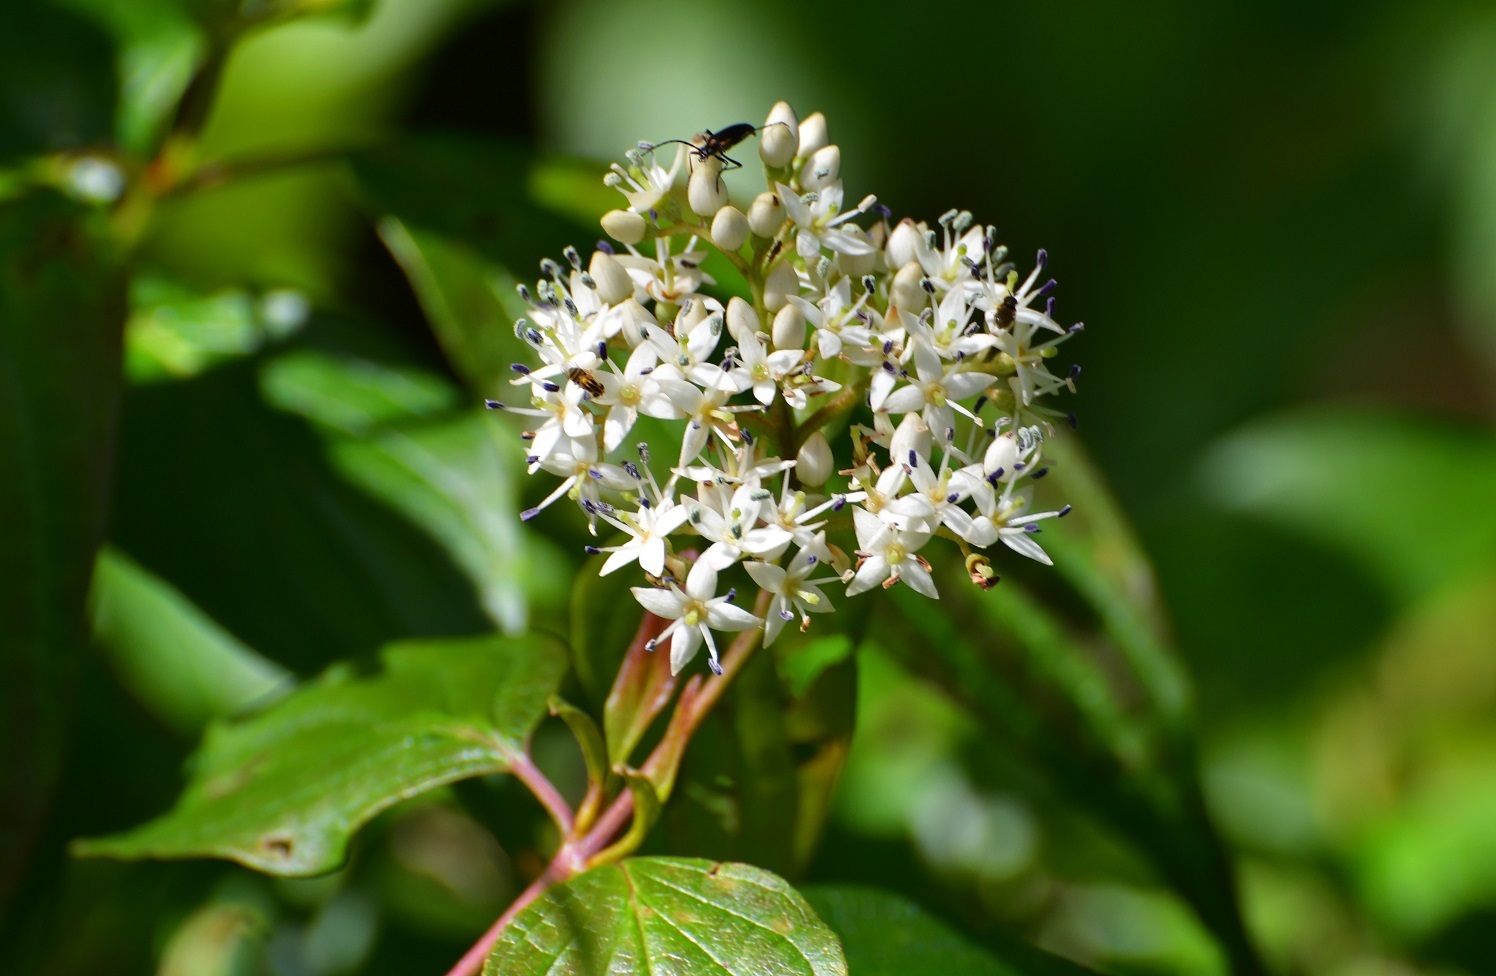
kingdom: Plantae
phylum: Tracheophyta
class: Magnoliopsida
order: Cornales
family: Cornaceae
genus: Cornus
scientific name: Cornus excelsa
